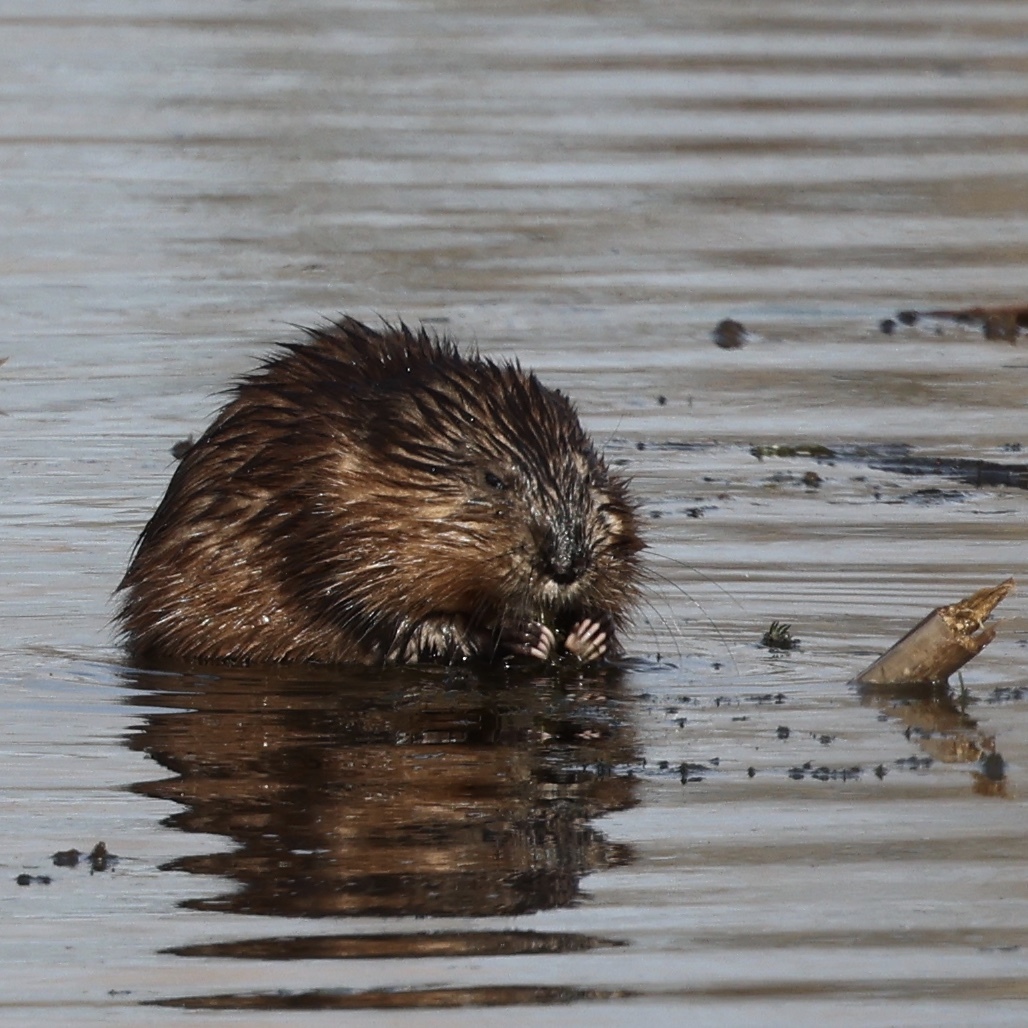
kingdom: Animalia
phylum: Chordata
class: Mammalia
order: Rodentia
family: Cricetidae
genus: Ondatra
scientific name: Ondatra zibethicus
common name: Muskrat
